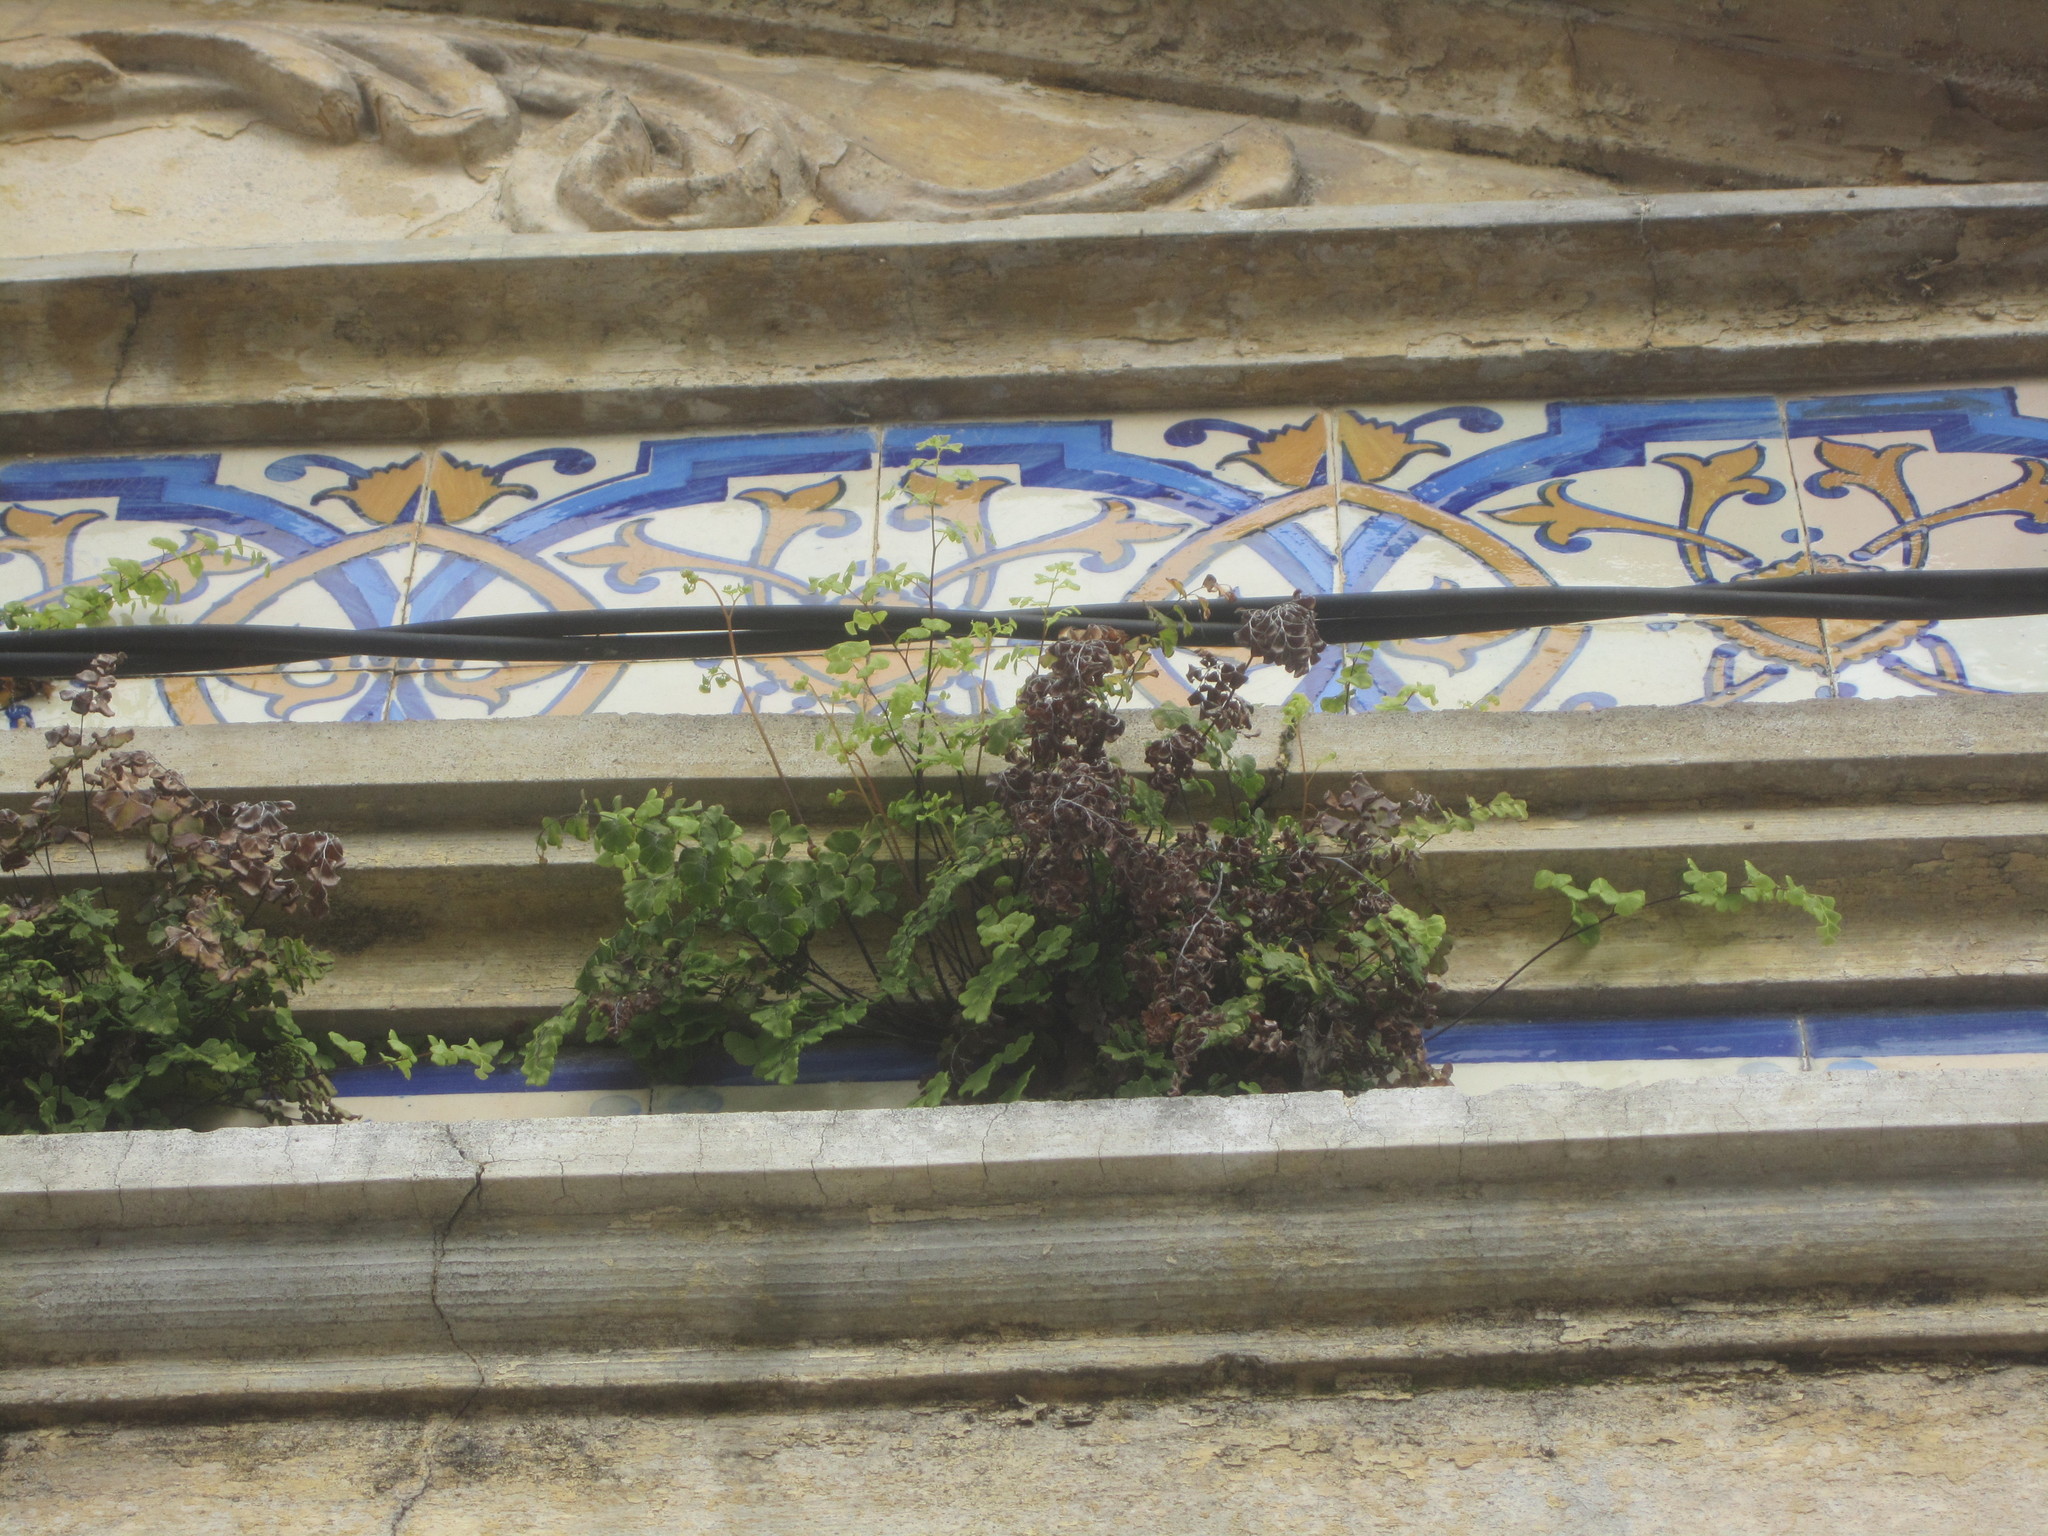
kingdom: Plantae
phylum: Tracheophyta
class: Polypodiopsida
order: Polypodiales
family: Pteridaceae
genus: Adiantum
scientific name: Adiantum capillus-veneris
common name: Maidenhair fern
